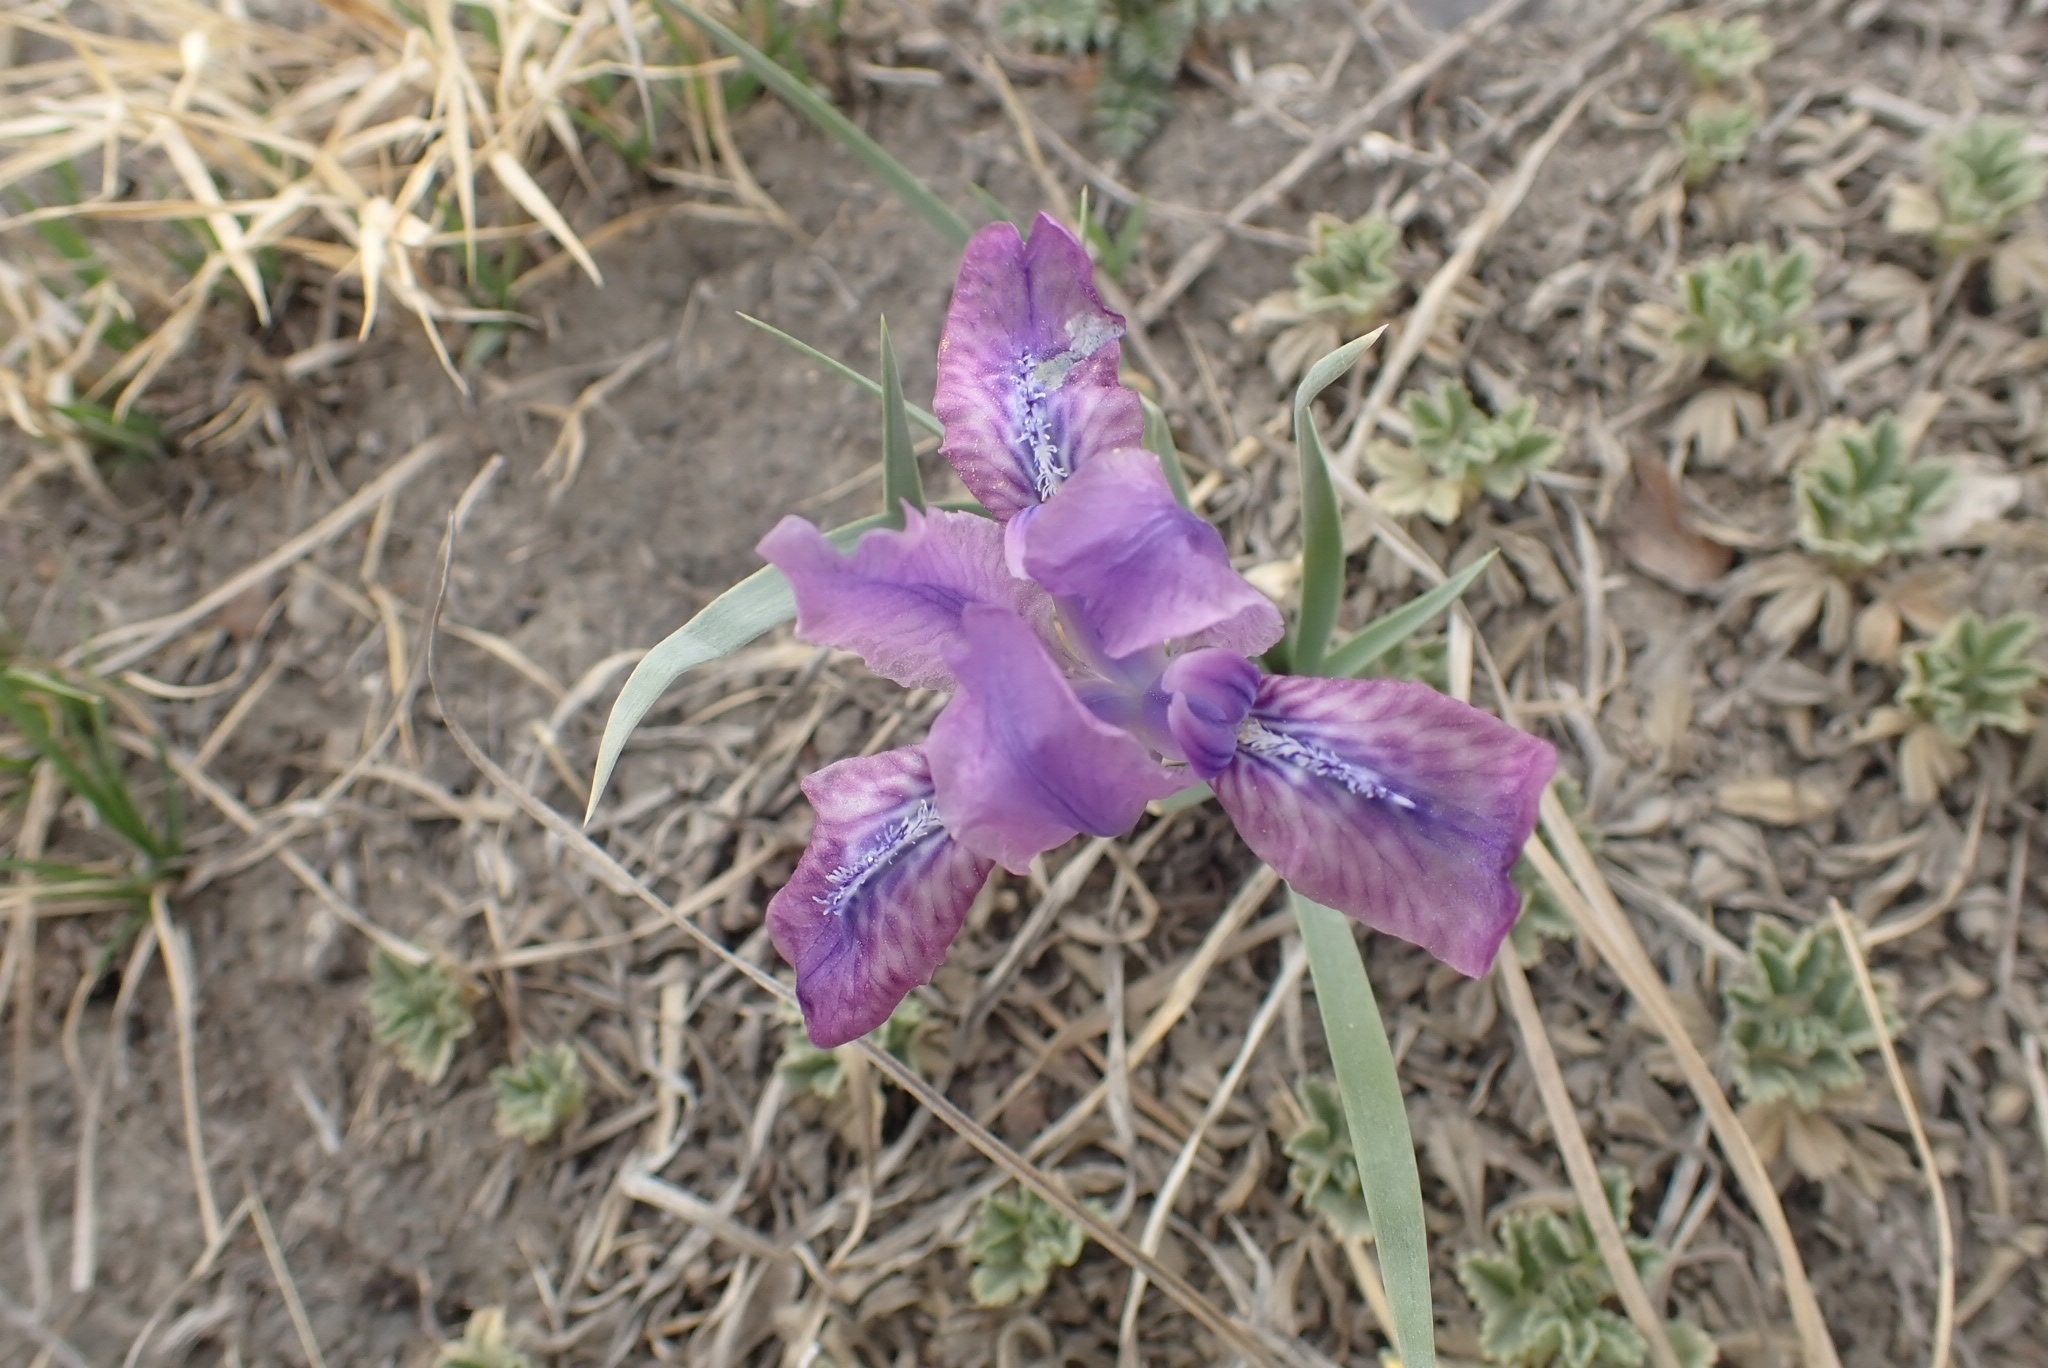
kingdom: Plantae
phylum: Tracheophyta
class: Liliopsida
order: Asparagales
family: Iridaceae
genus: Iris
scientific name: Iris tigridia
